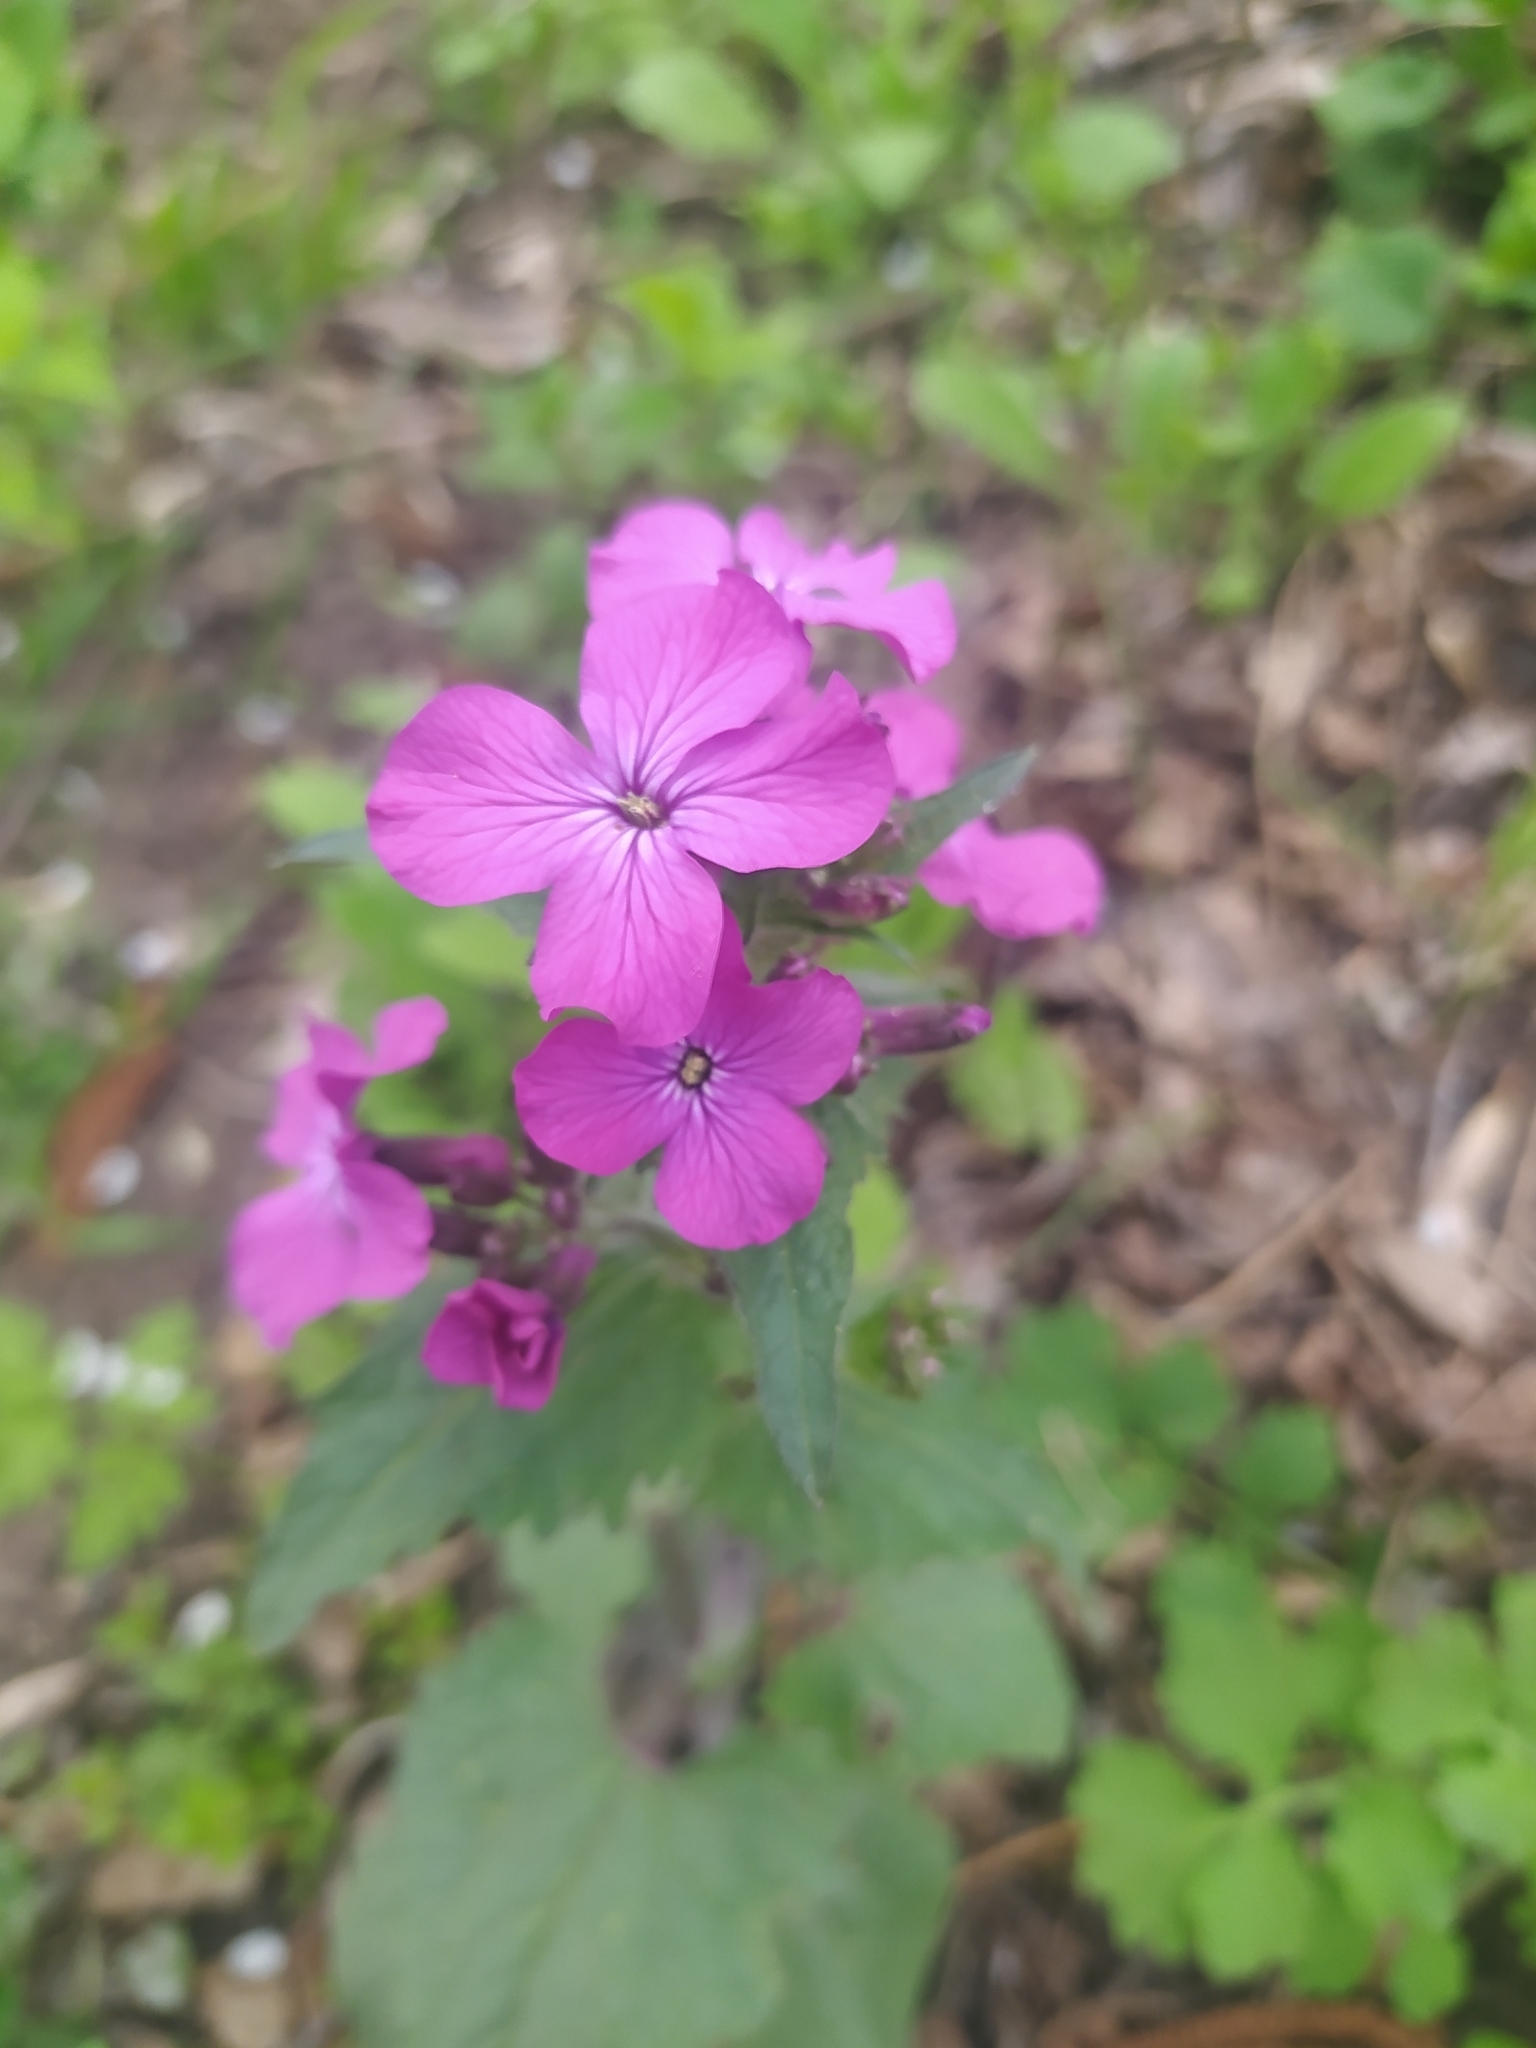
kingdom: Plantae
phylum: Tracheophyta
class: Magnoliopsida
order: Brassicales
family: Brassicaceae
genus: Lunaria
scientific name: Lunaria annua
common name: Honesty
